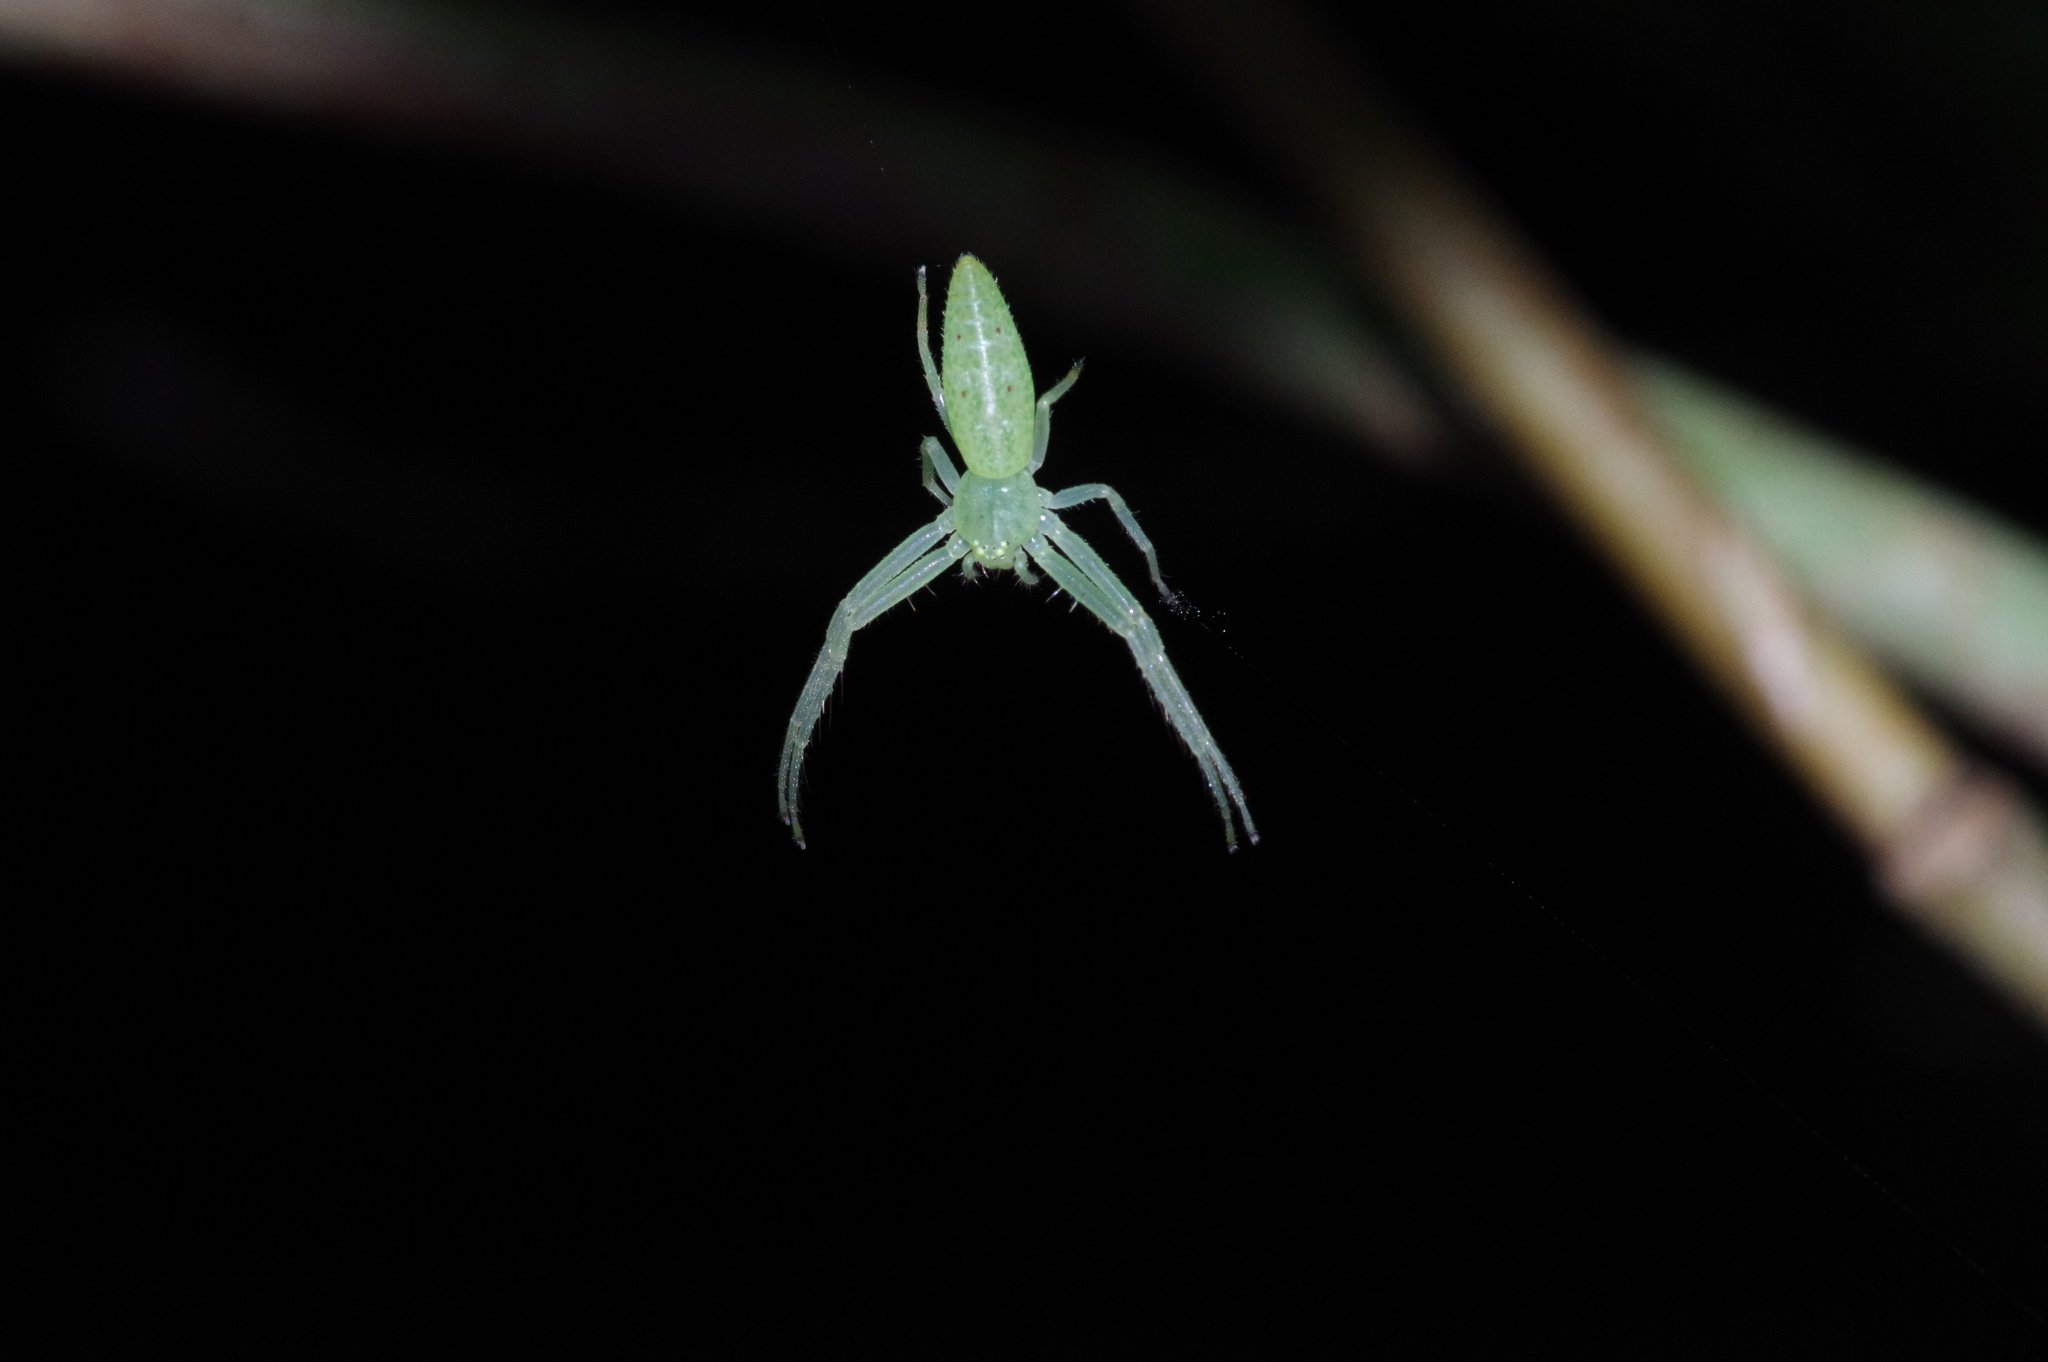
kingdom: Animalia
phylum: Arthropoda
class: Arachnida
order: Araneae
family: Thomisidae
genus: Oxytate
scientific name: Oxytate hoshizuna
